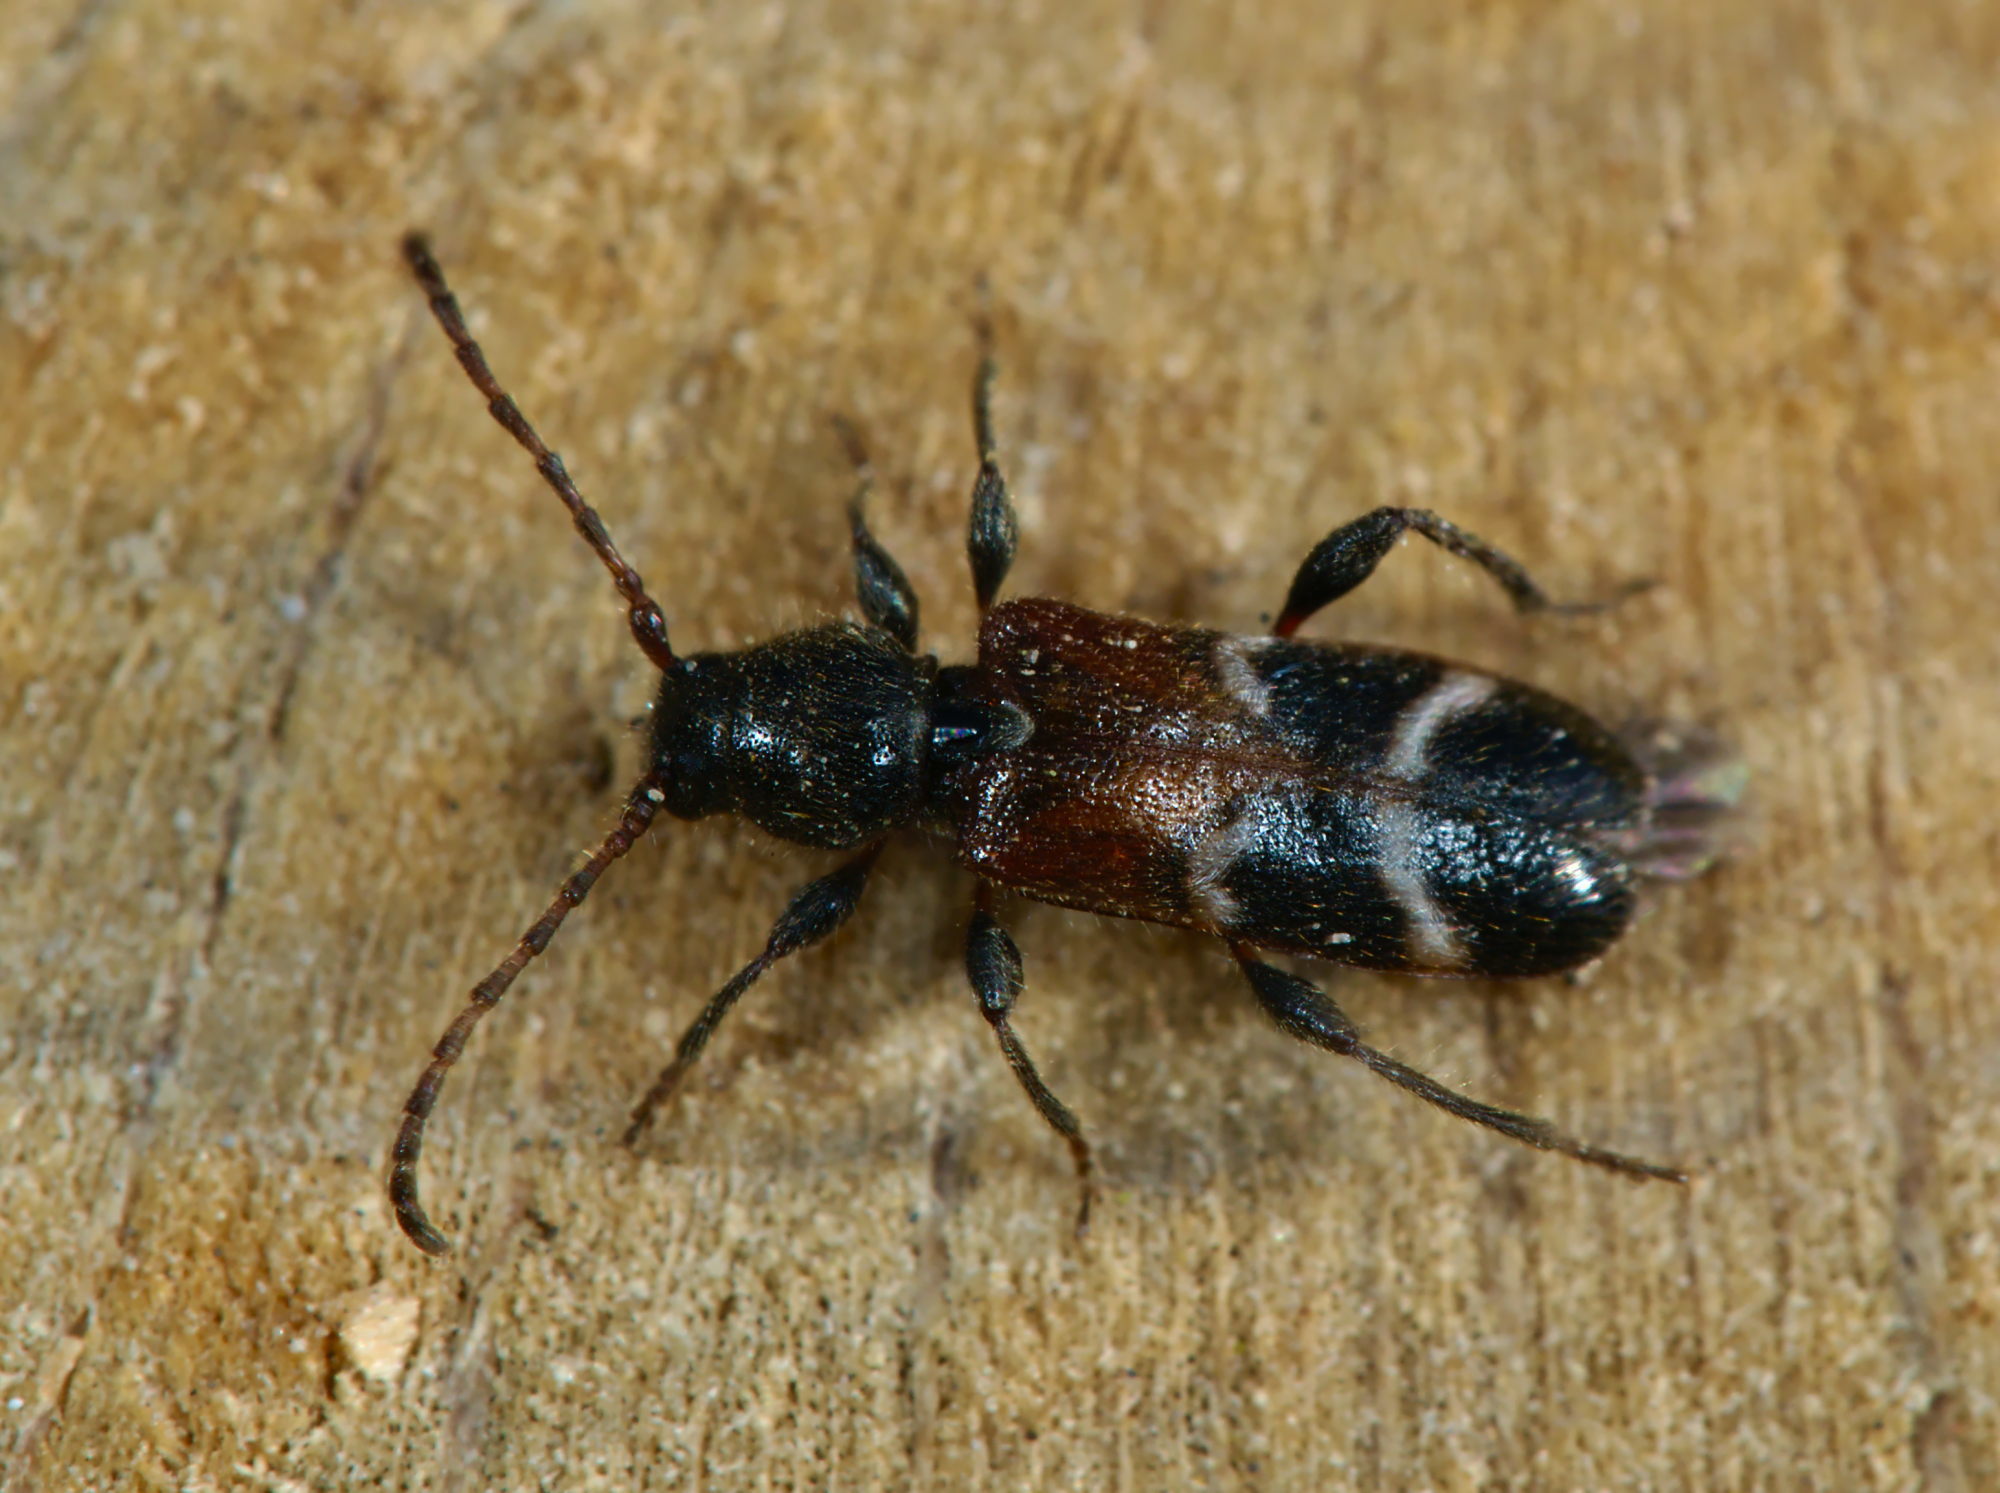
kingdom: Animalia
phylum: Arthropoda
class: Insecta
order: Coleoptera
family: Cerambycidae
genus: Poecilium
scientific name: Poecilium alni
